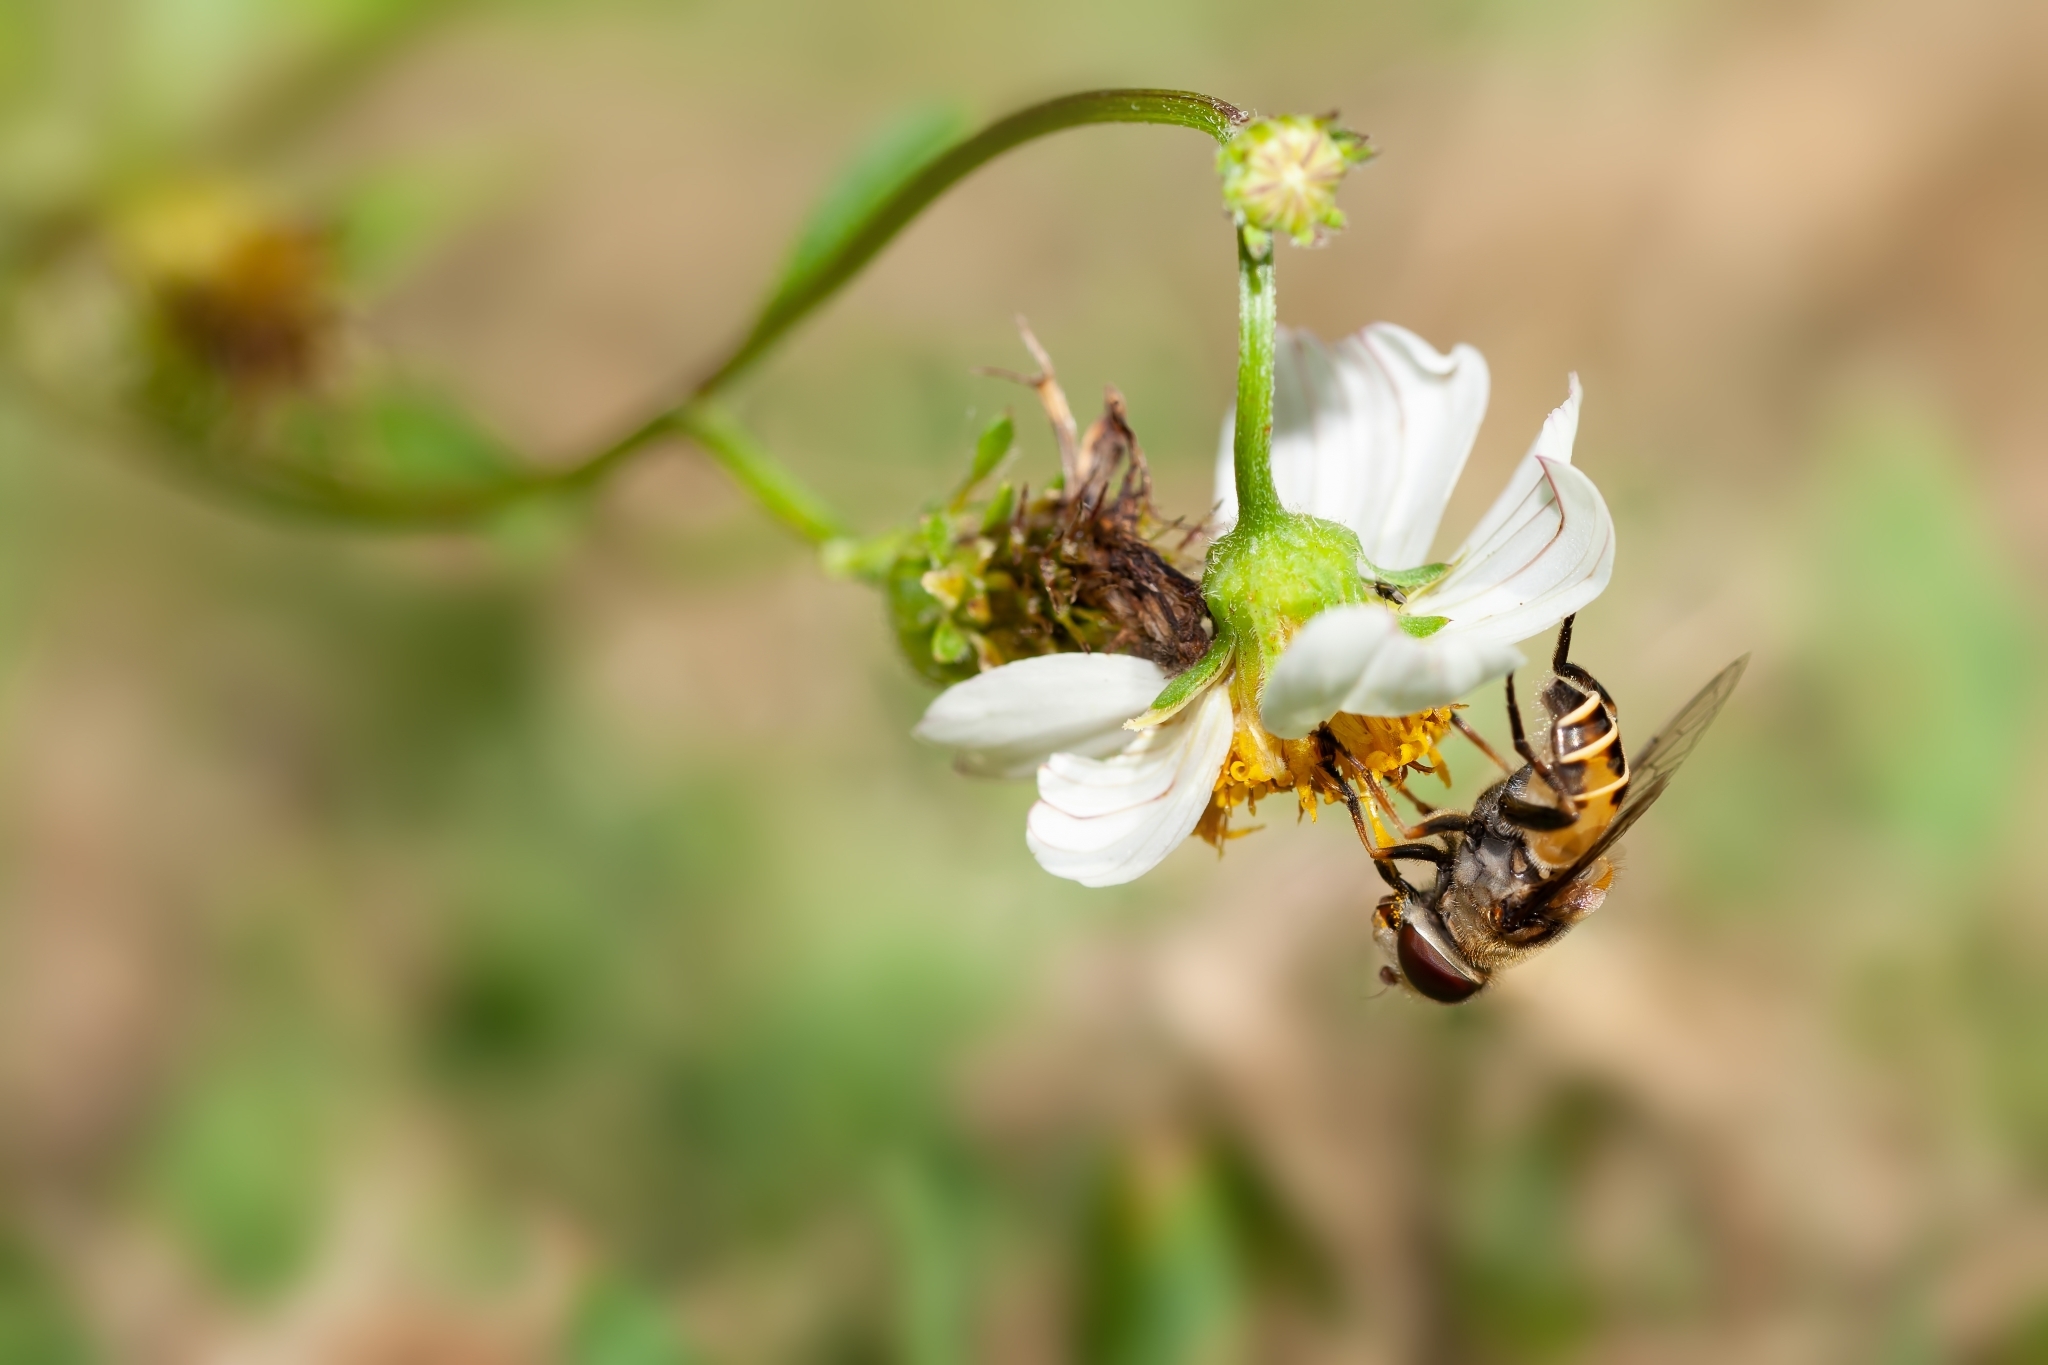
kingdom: Animalia
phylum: Arthropoda
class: Insecta
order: Diptera
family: Syrphidae
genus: Palpada
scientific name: Palpada vinetorum
